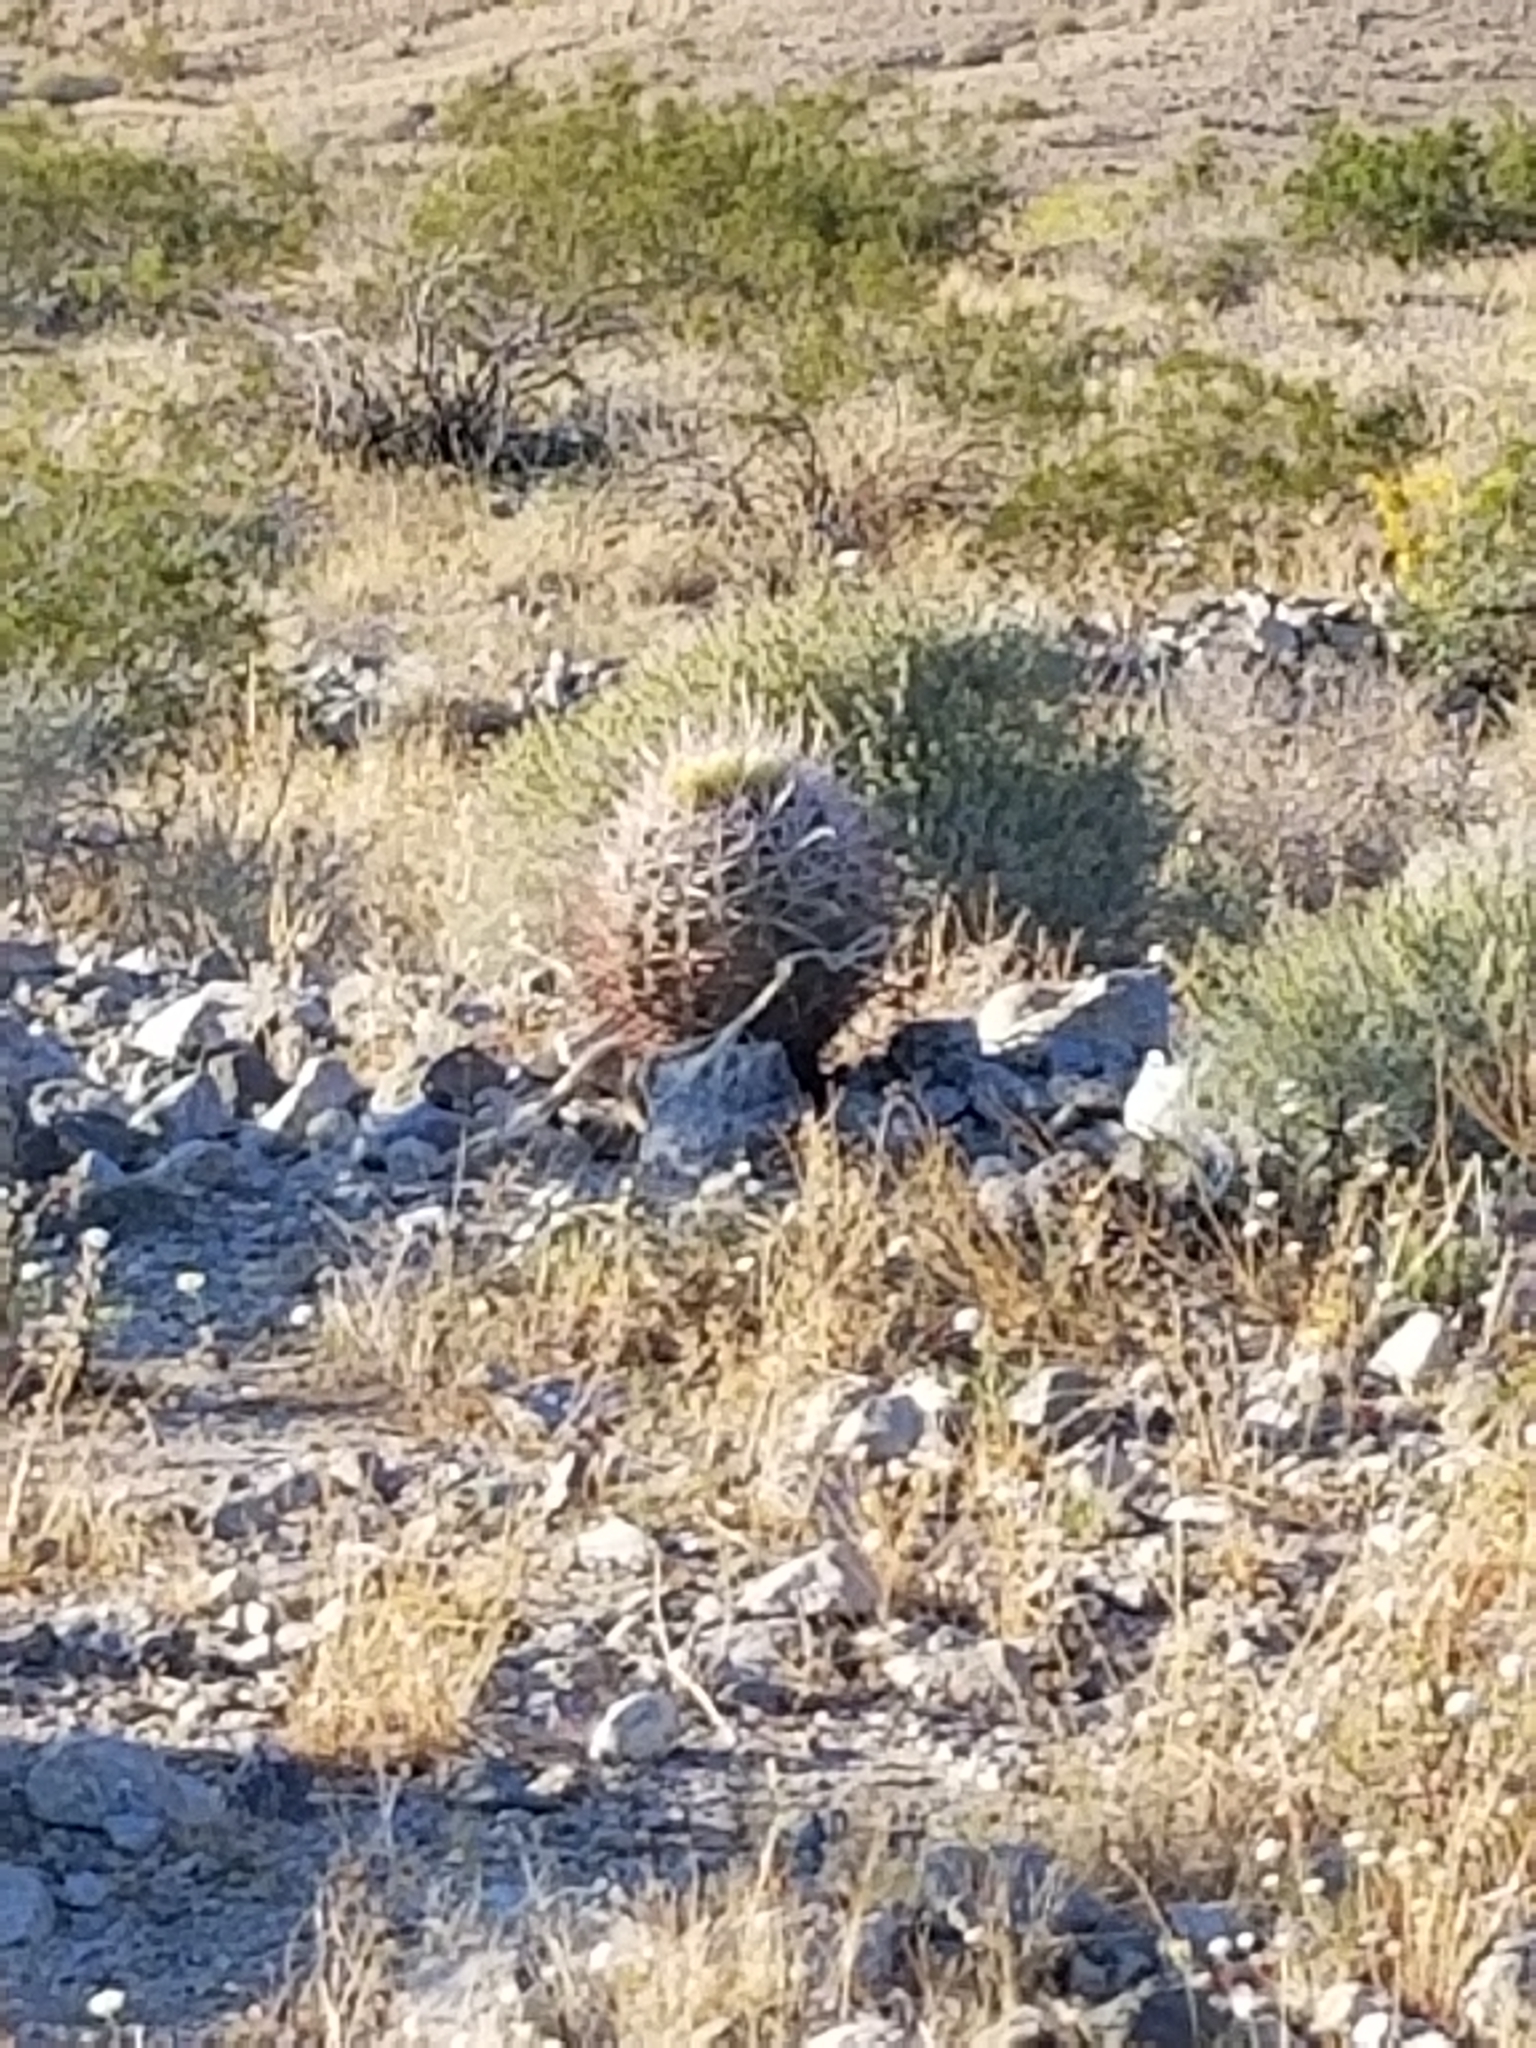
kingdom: Plantae
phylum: Tracheophyta
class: Magnoliopsida
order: Caryophyllales
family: Cactaceae
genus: Ferocactus
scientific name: Ferocactus cylindraceus
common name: California barrel cactus
